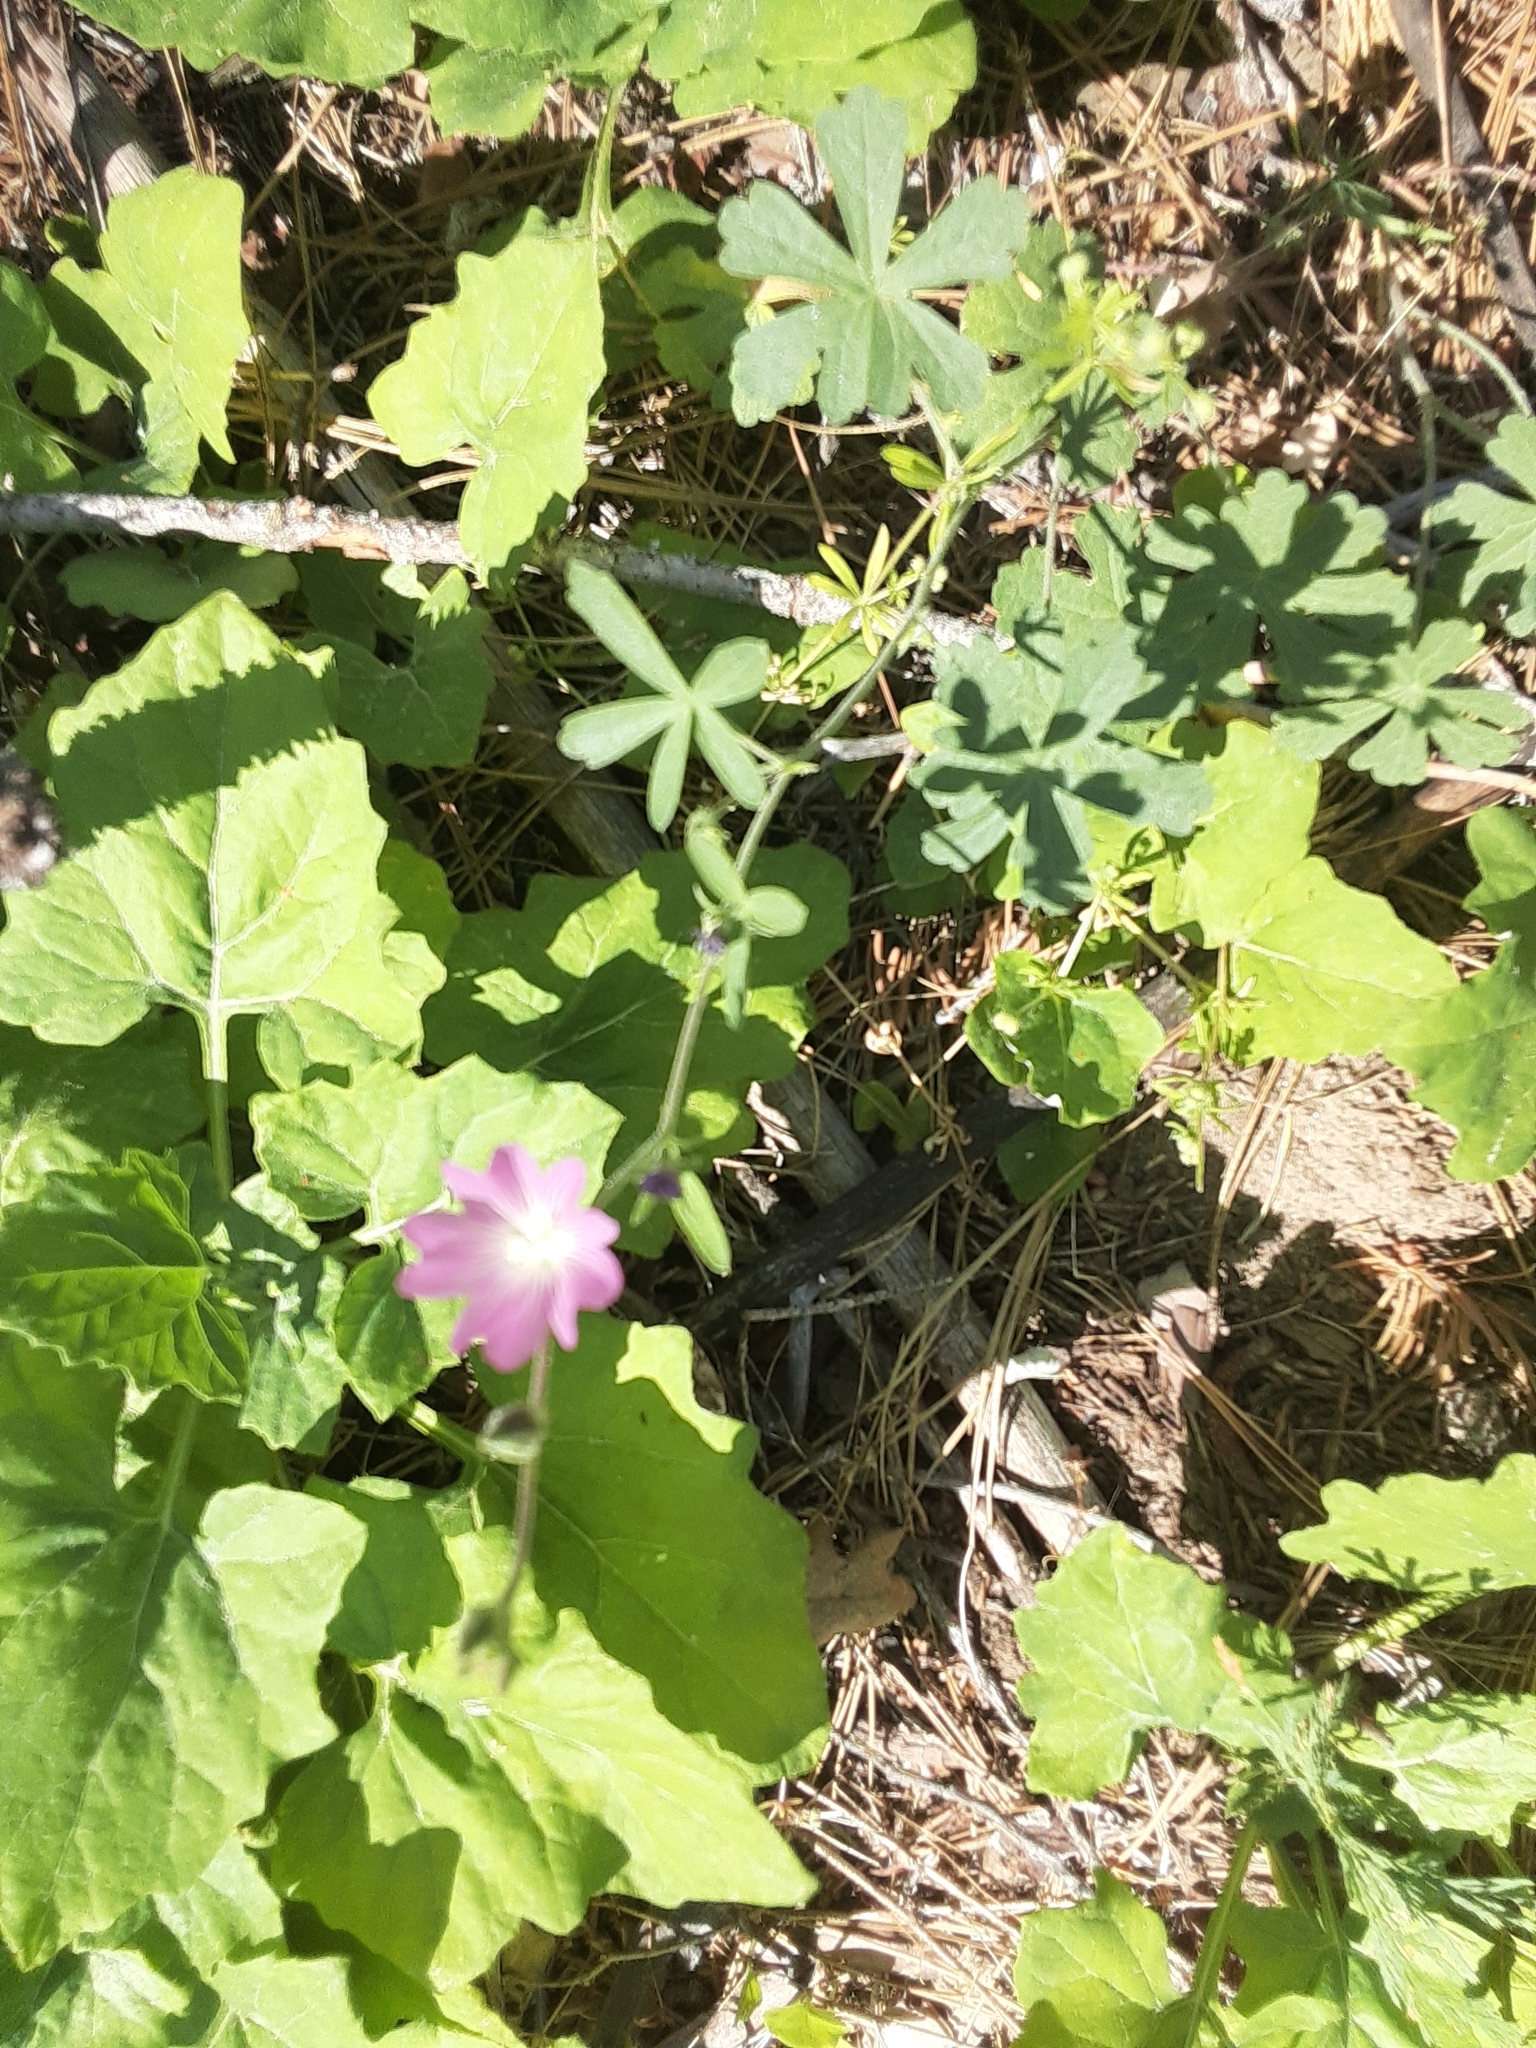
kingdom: Plantae
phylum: Tracheophyta
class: Magnoliopsida
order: Malvales
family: Malvaceae
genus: Sidalcea
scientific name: Sidalcea glaucescens
